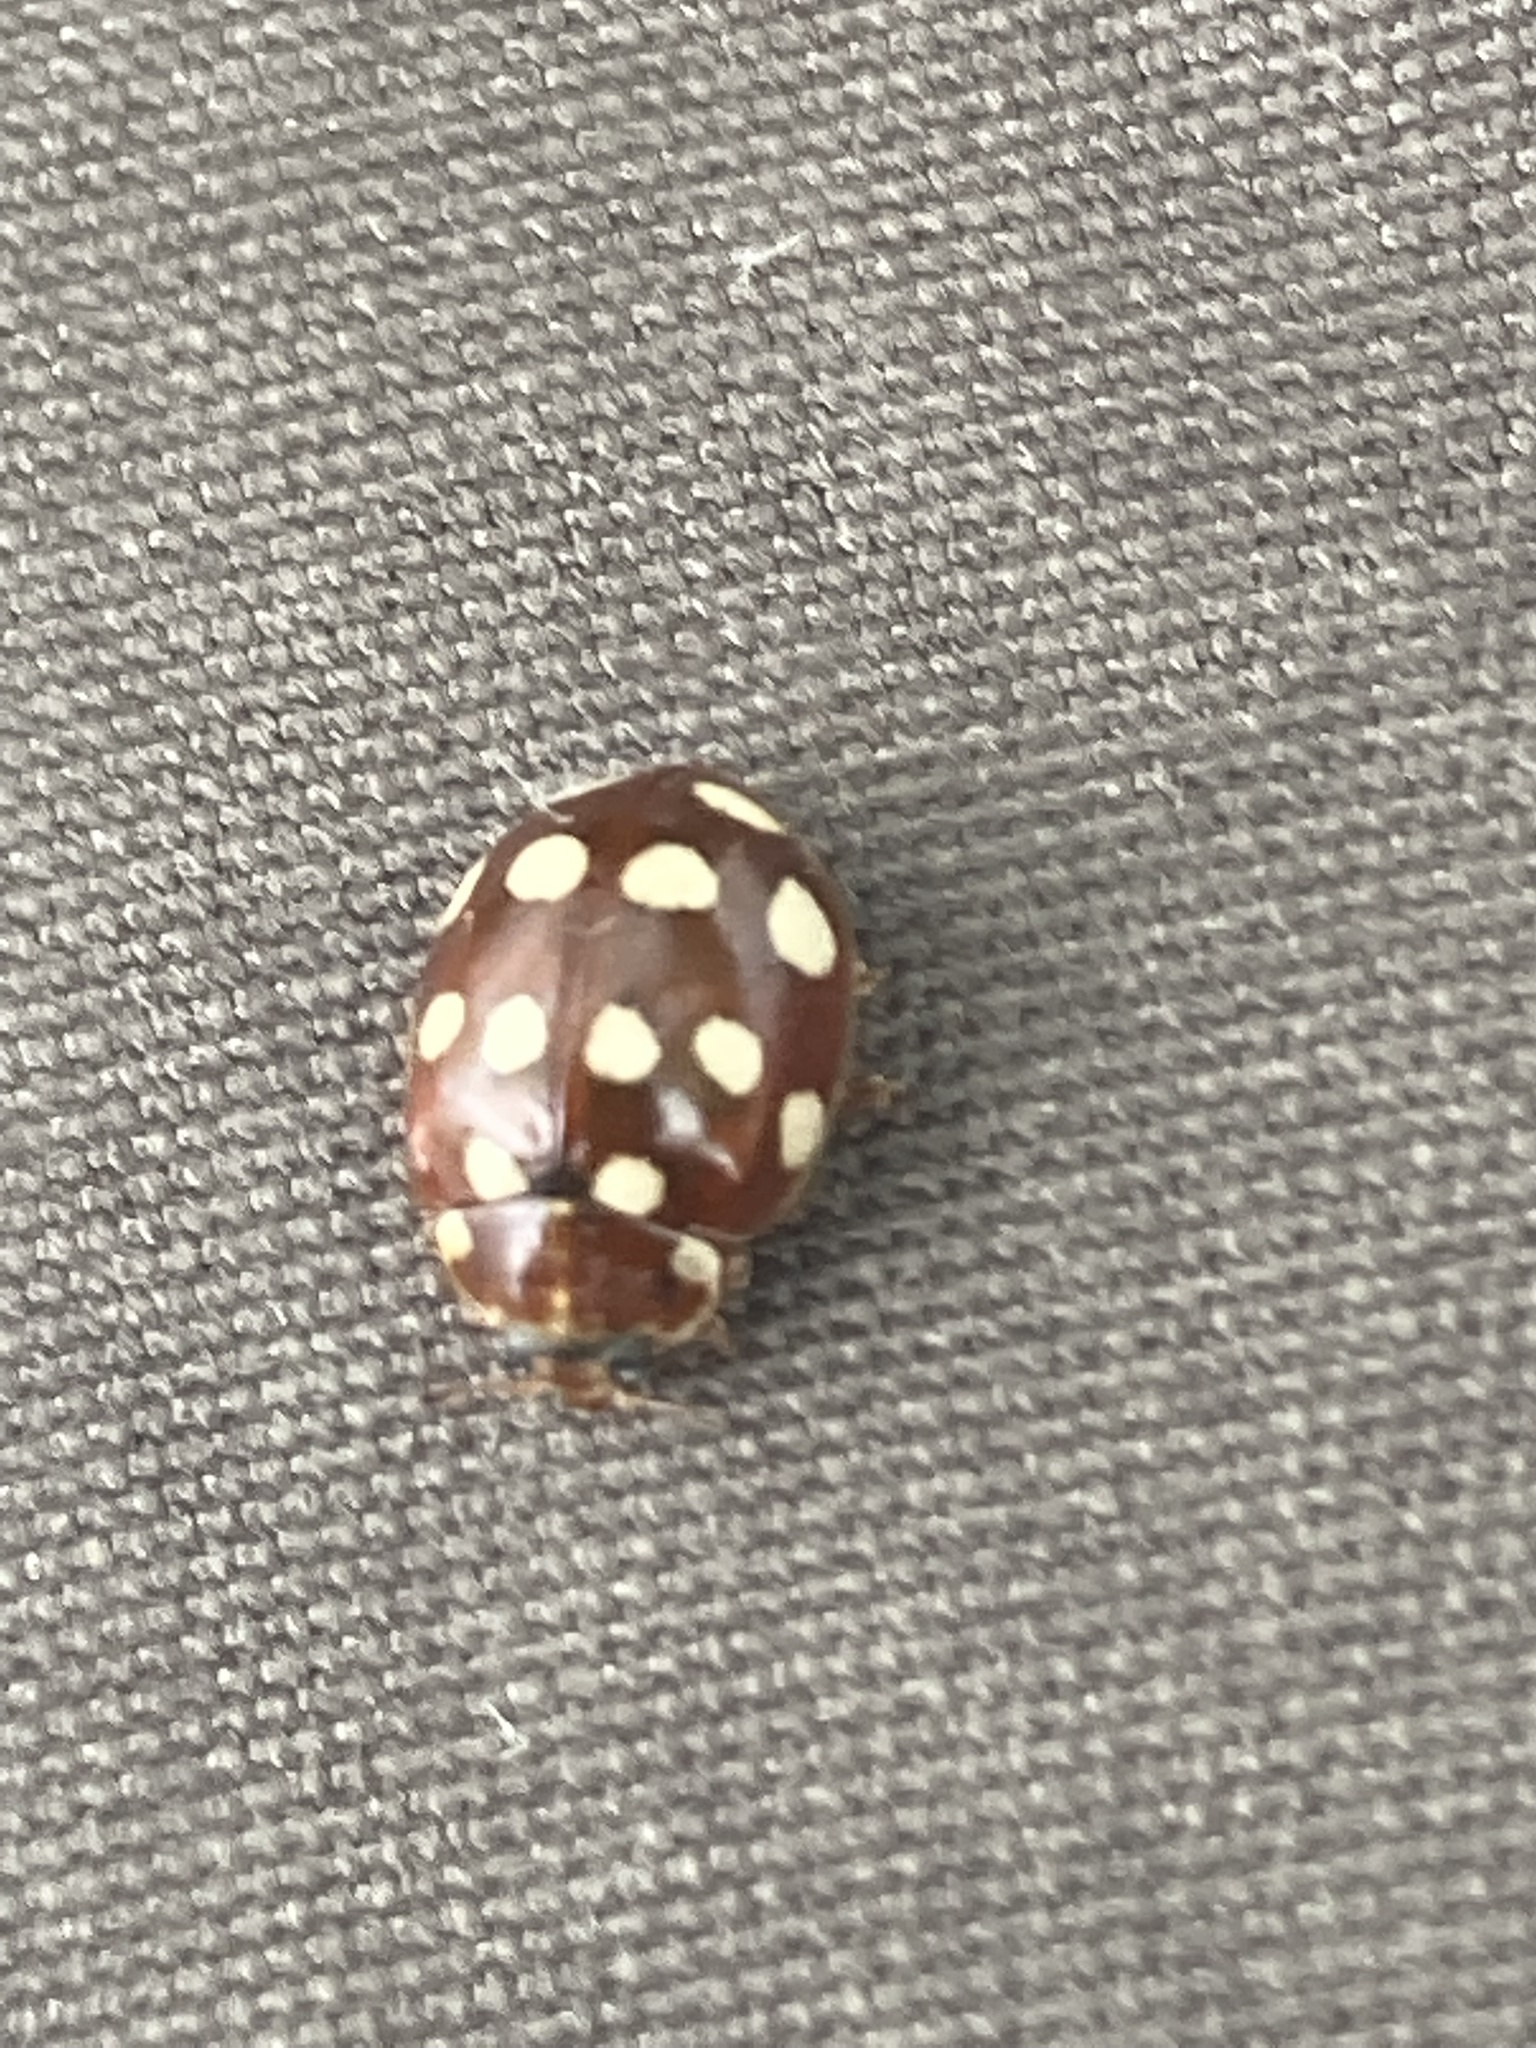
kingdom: Animalia
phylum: Arthropoda
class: Insecta
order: Coleoptera
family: Coccinellidae
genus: Calvia
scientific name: Calvia quatuordecimguttata
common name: Cream-spot ladybird
